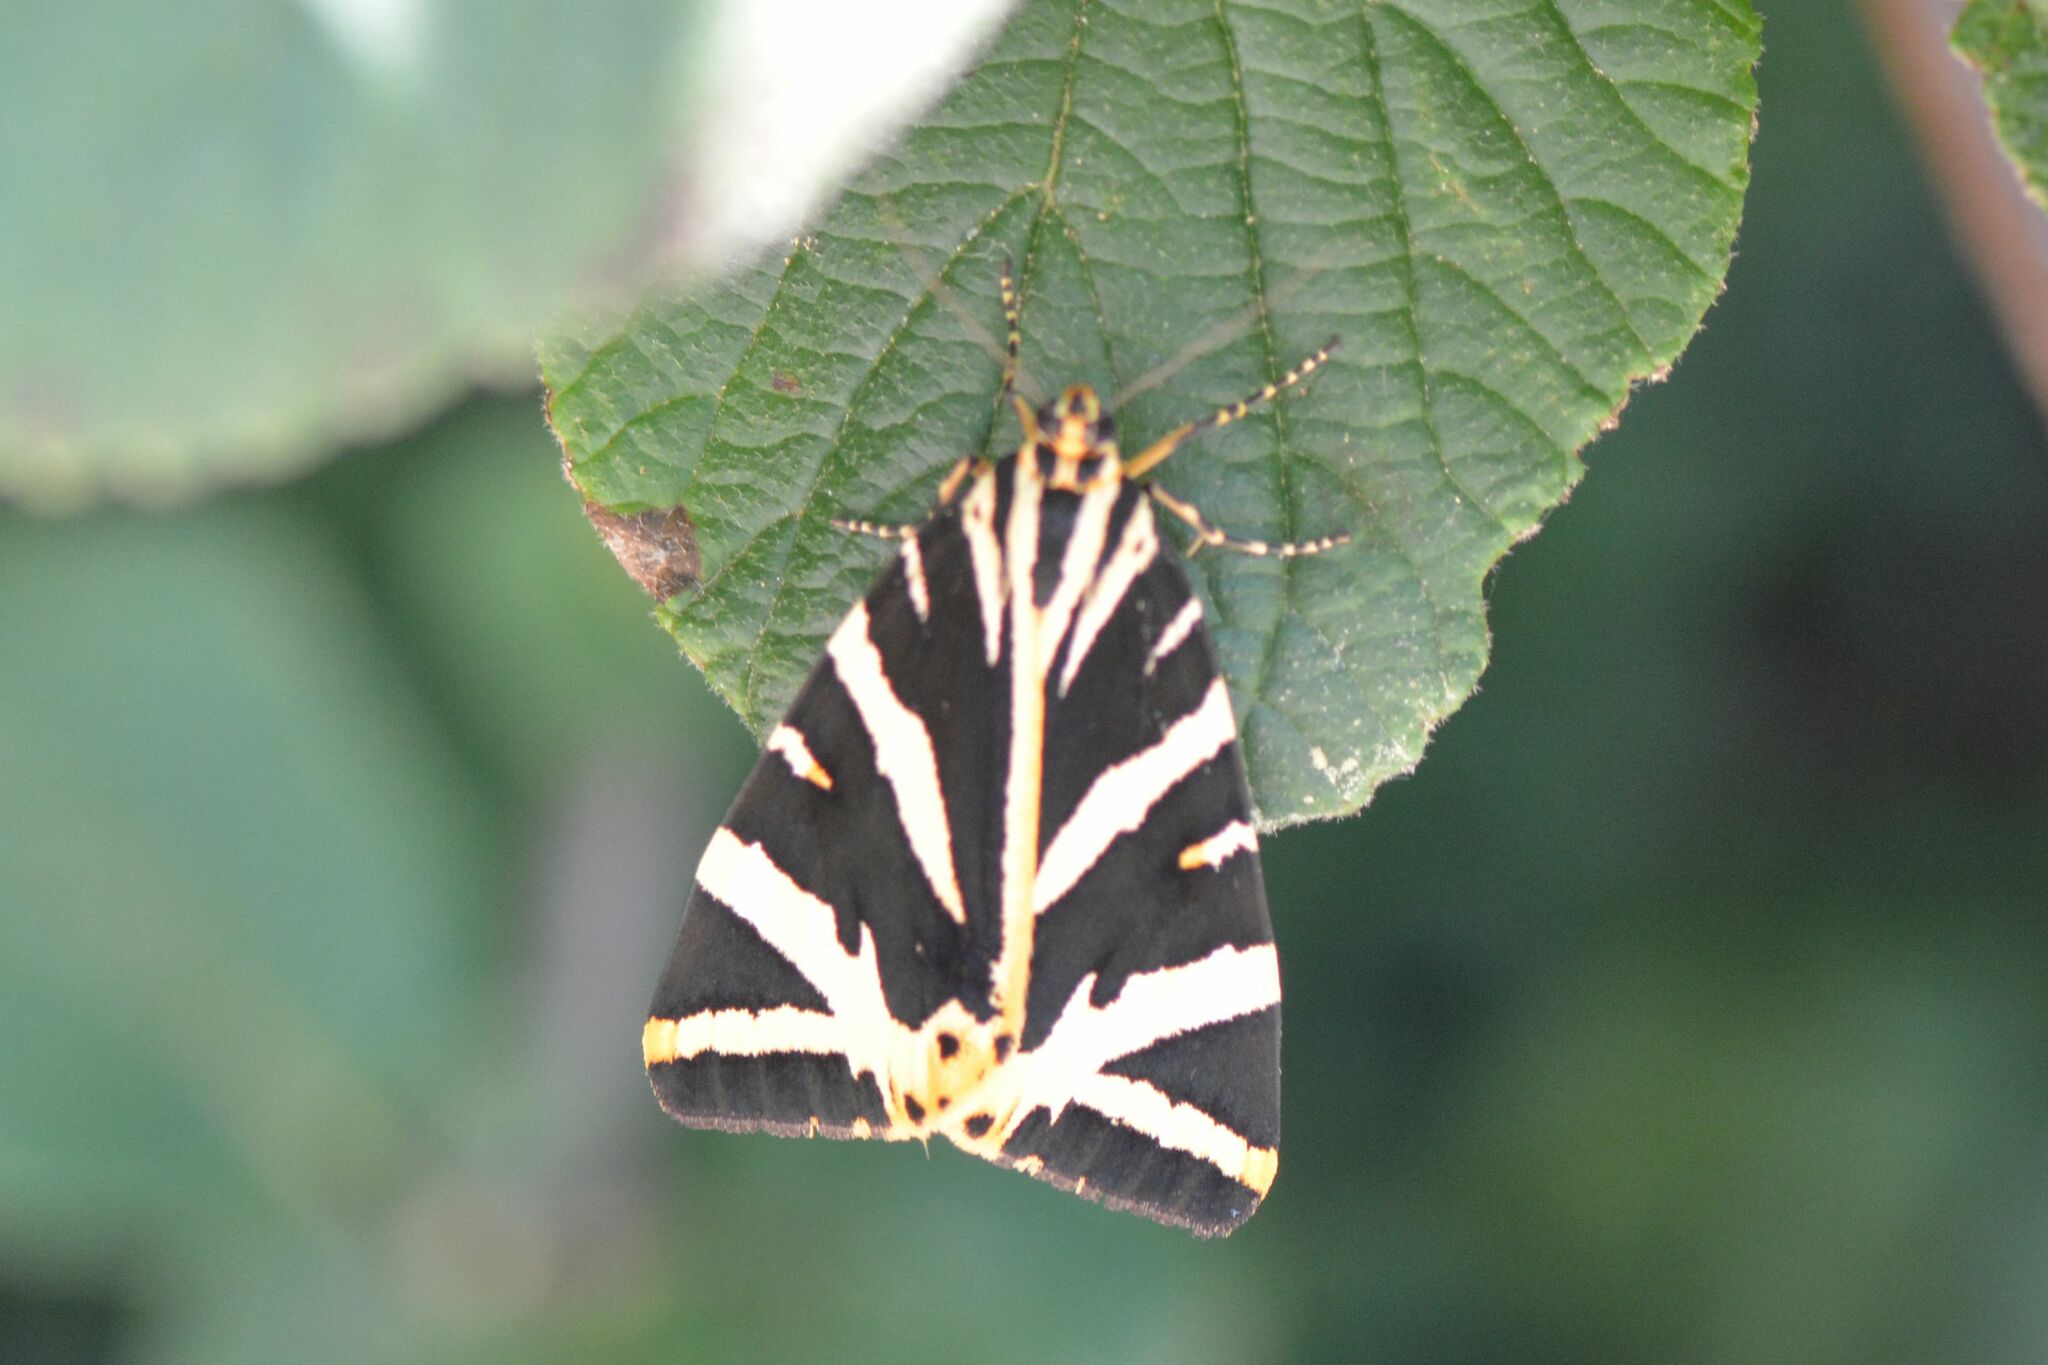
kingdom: Animalia
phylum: Arthropoda
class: Insecta
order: Lepidoptera
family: Erebidae
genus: Euplagia
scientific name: Euplagia quadripunctaria
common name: Jersey tiger
